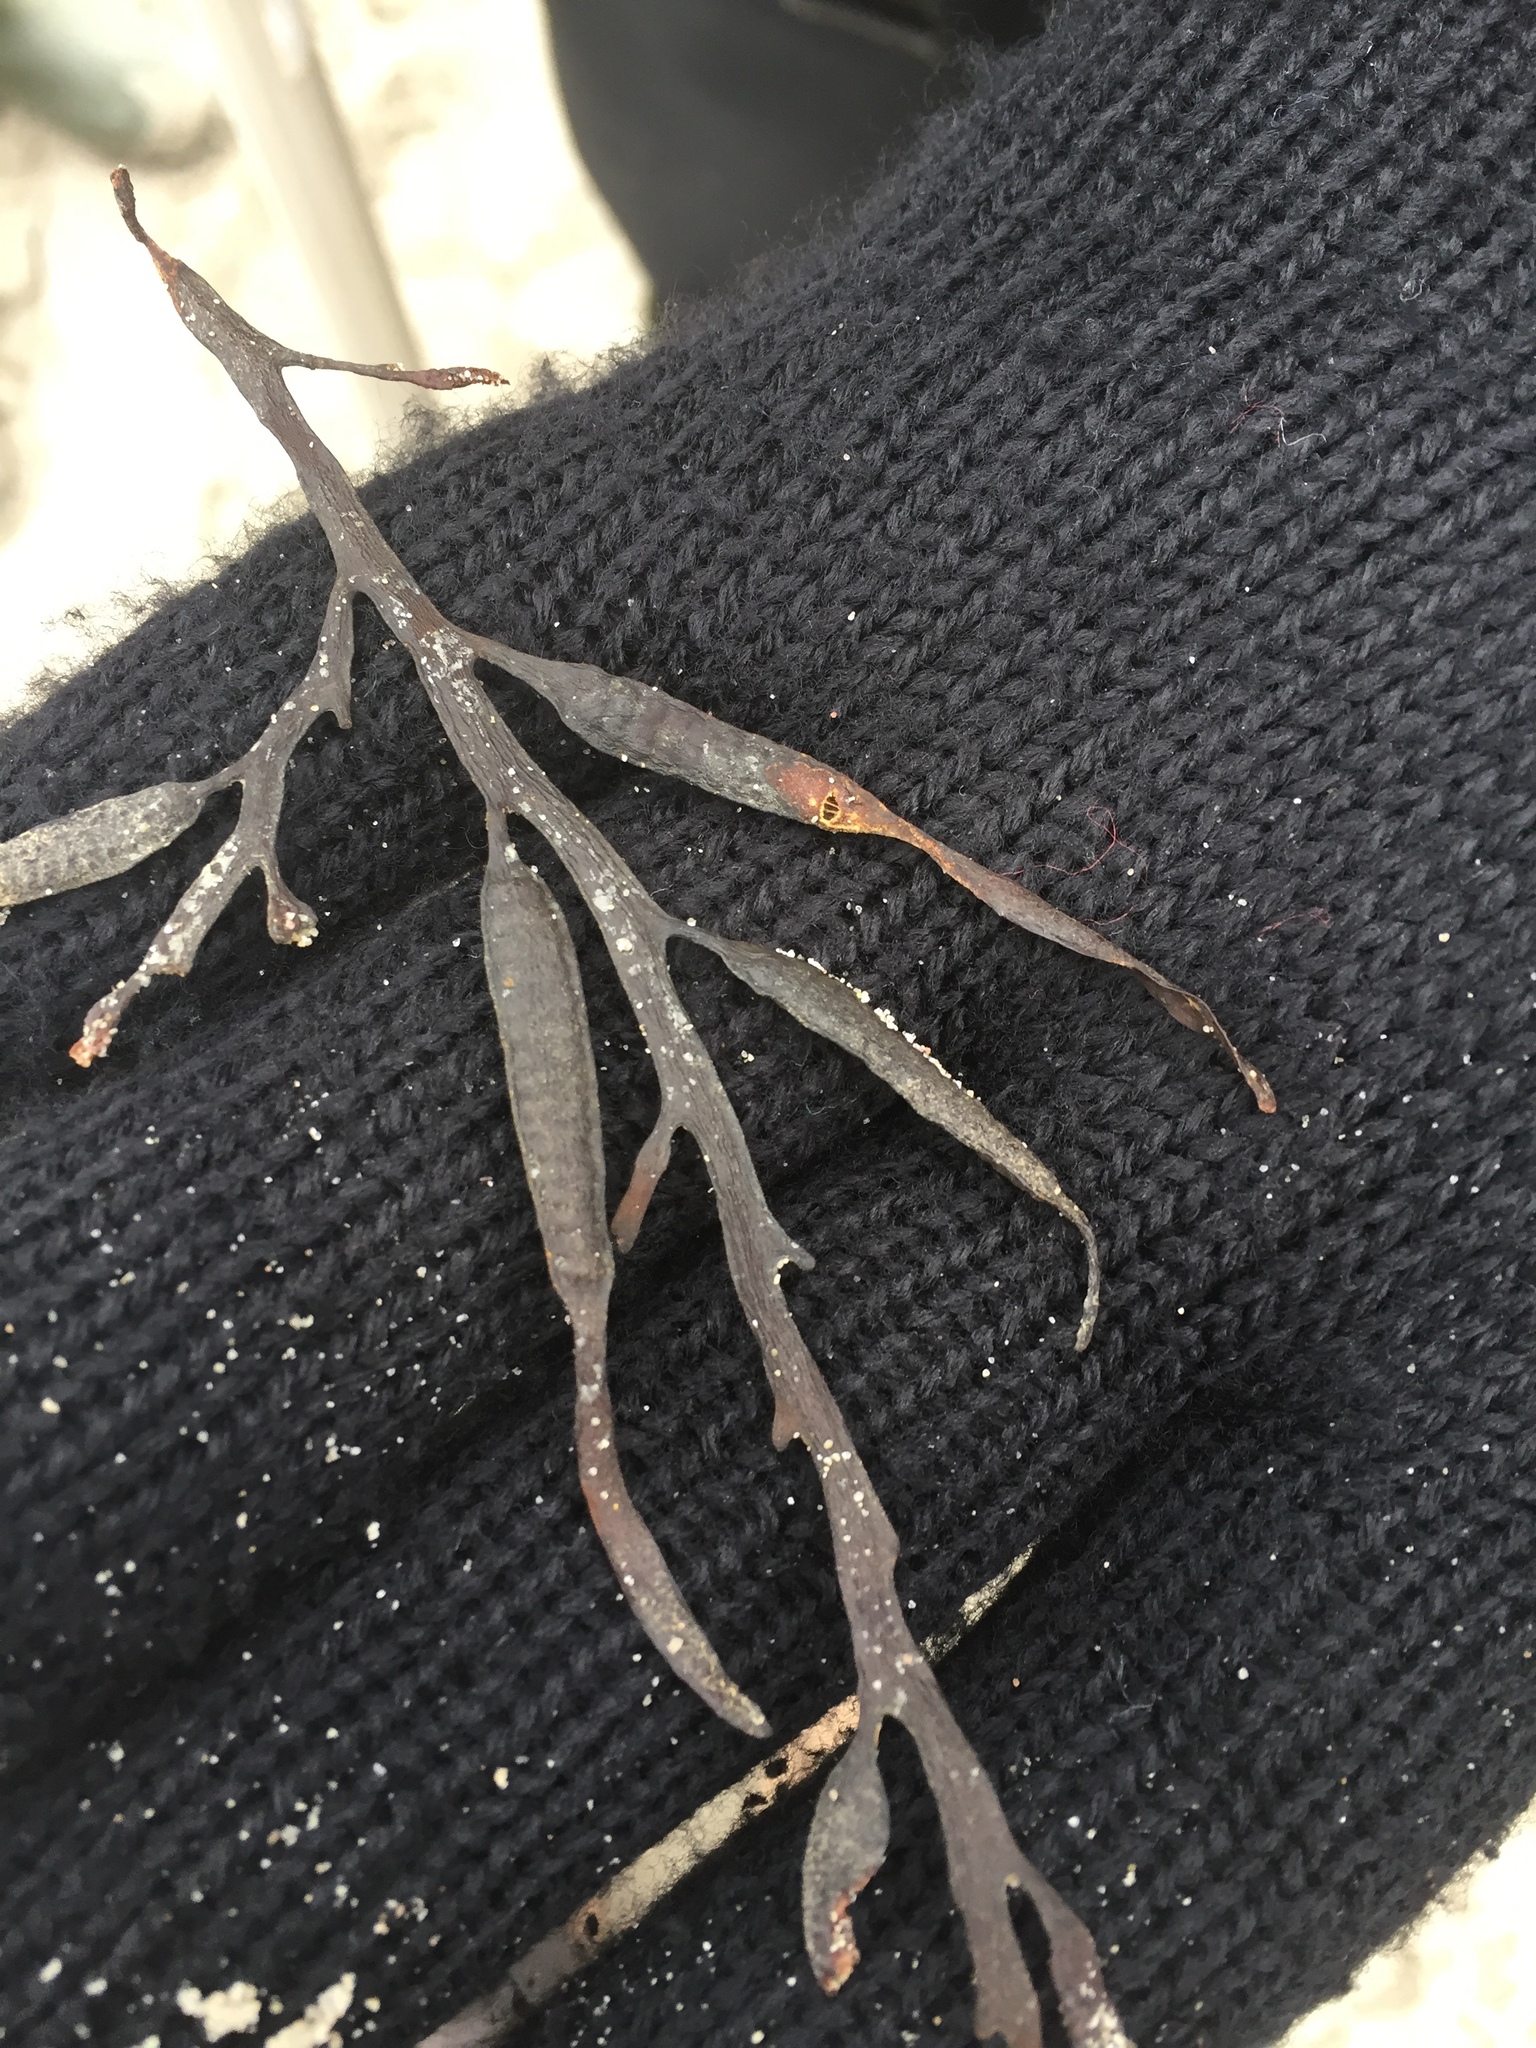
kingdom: Chromista
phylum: Ochrophyta
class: Phaeophyceae
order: Fucales
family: Sargassaceae
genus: Halidrys
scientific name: Halidrys siliquosa
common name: Sea oak
